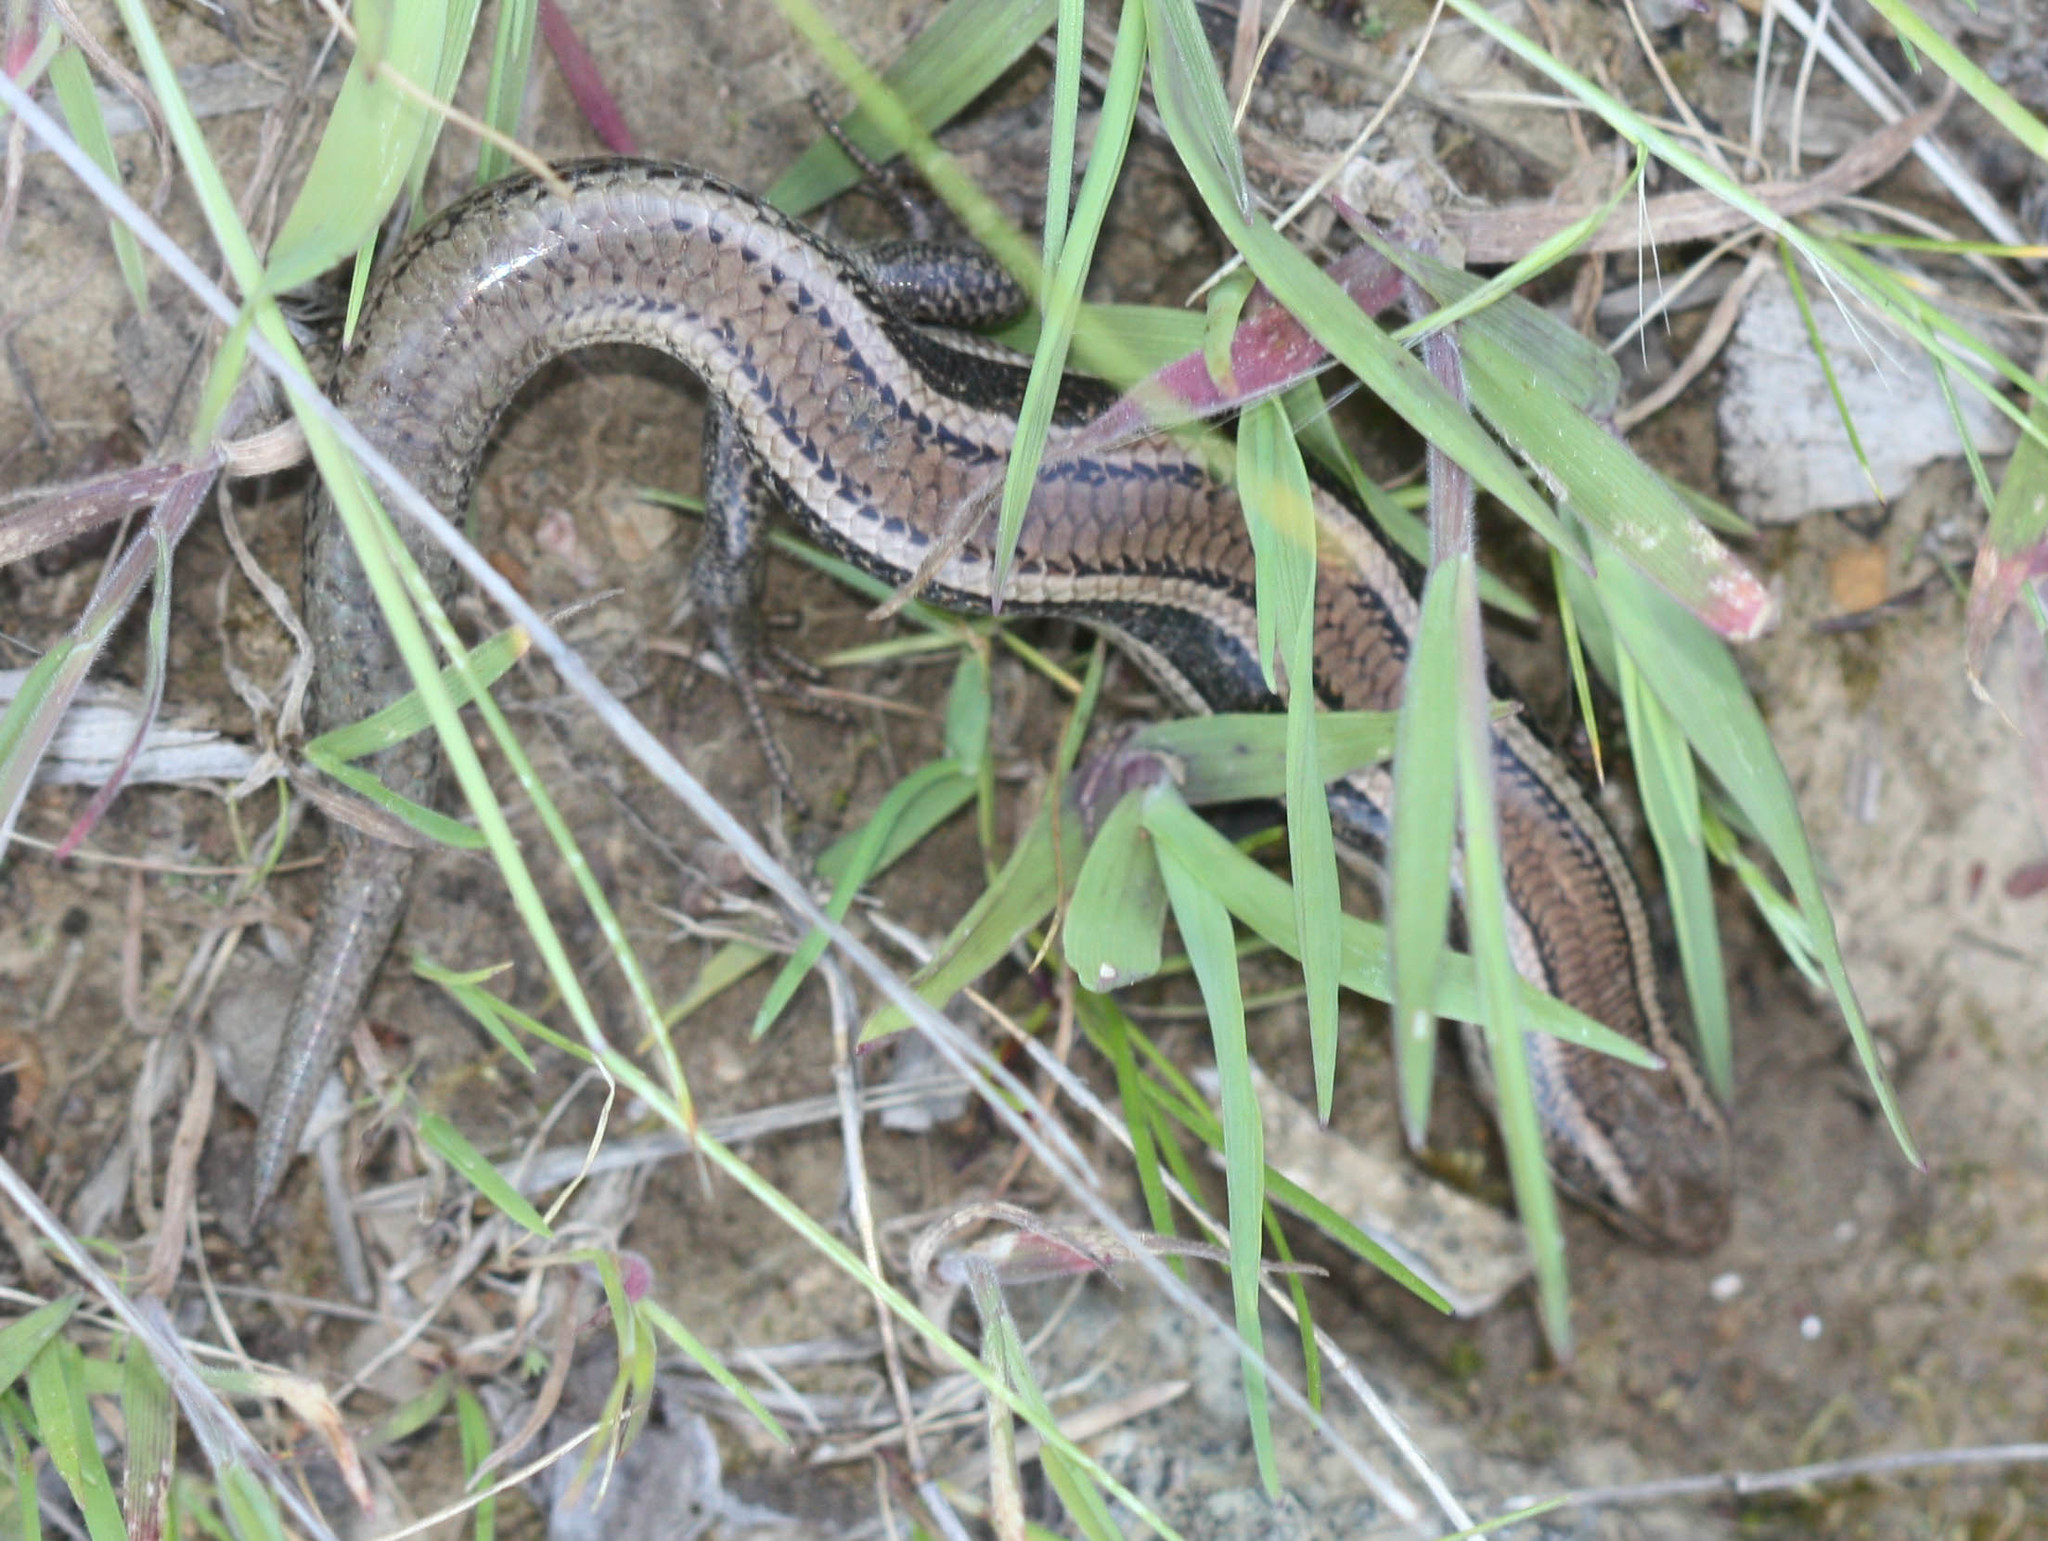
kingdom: Animalia
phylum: Chordata
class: Squamata
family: Scincidae
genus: Plestiodon
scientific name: Plestiodon skiltonianus
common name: Coronado island skink [interparietalis]
